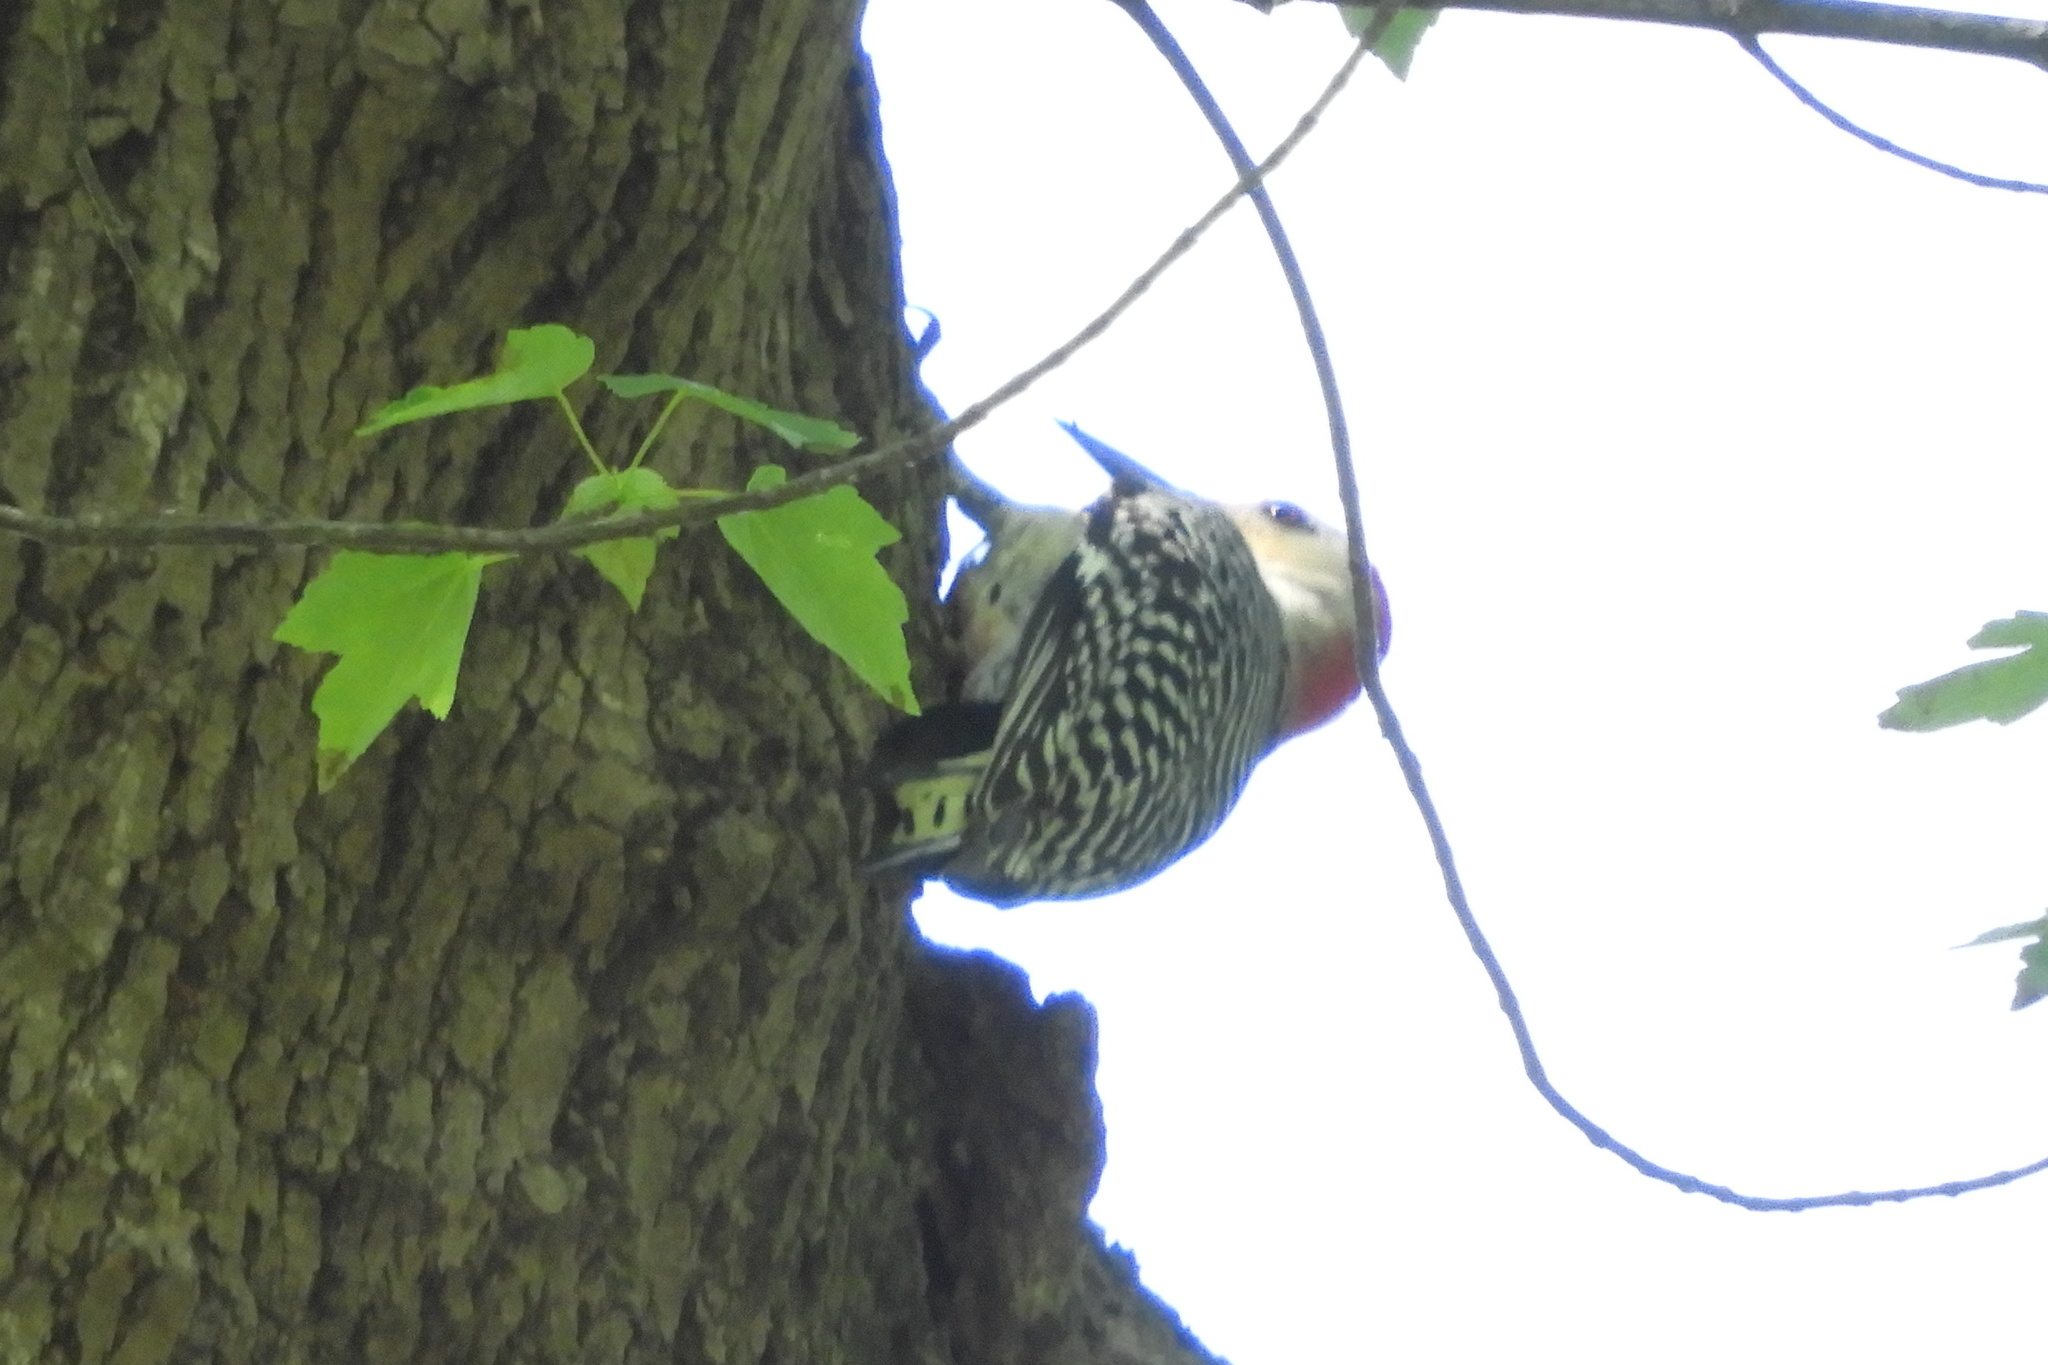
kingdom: Animalia
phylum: Chordata
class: Aves
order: Piciformes
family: Picidae
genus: Melanerpes
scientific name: Melanerpes carolinus
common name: Red-bellied woodpecker
